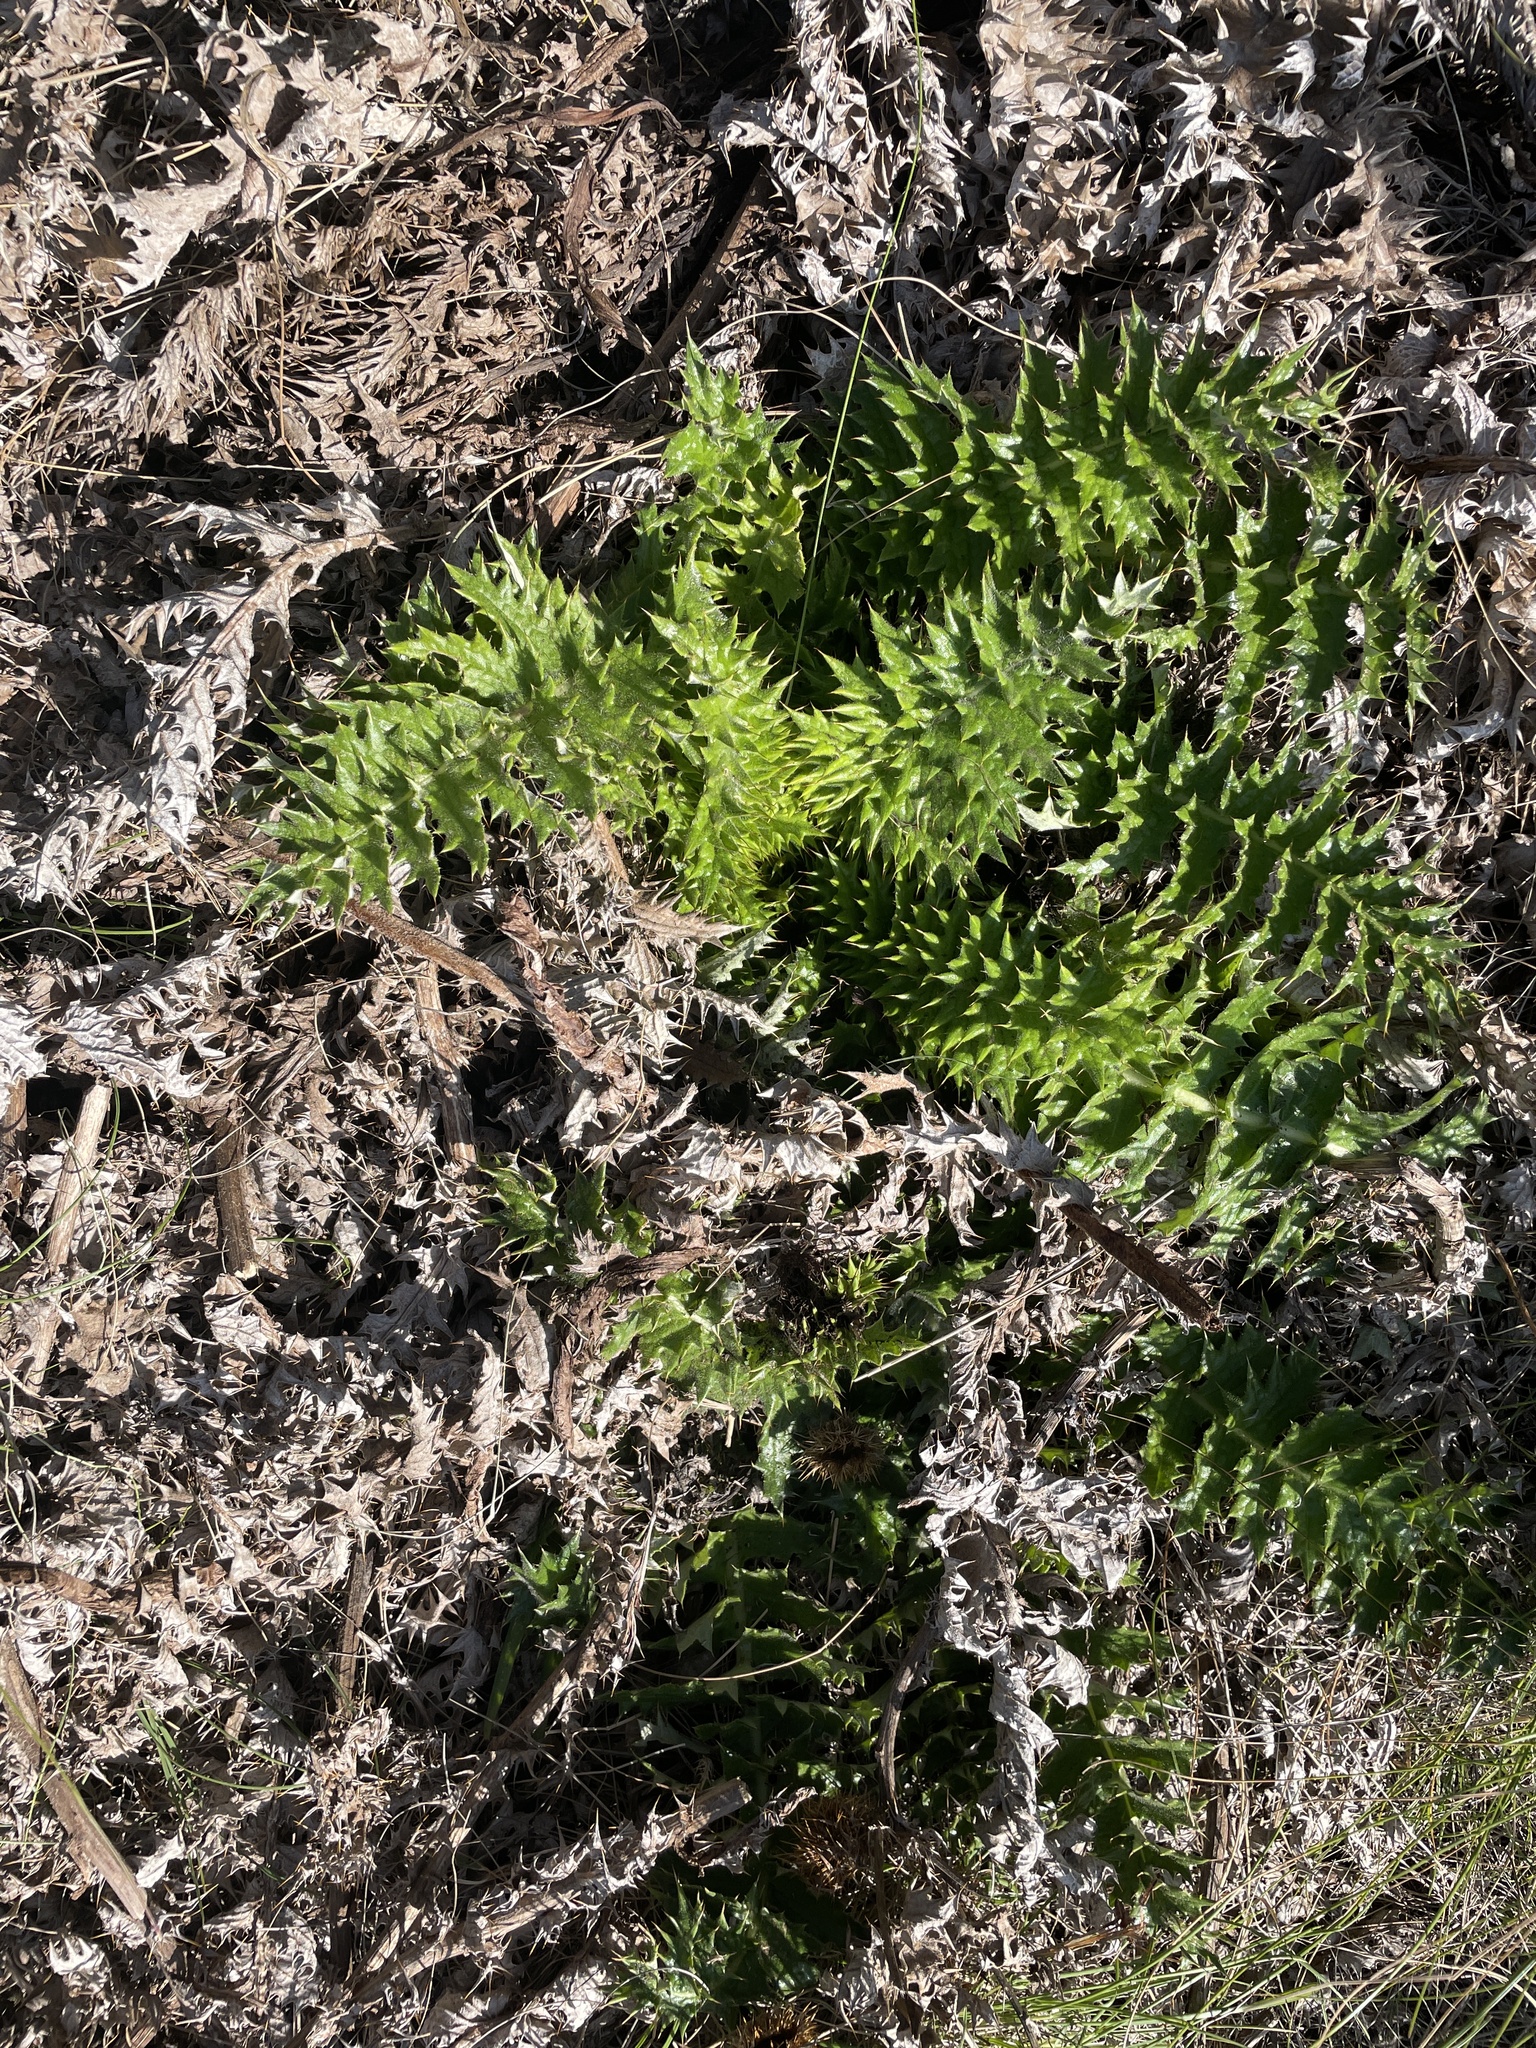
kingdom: Plantae
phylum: Tracheophyta
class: Magnoliopsida
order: Asterales
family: Asteraceae
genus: Berkheya
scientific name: Berkheya multijuga
